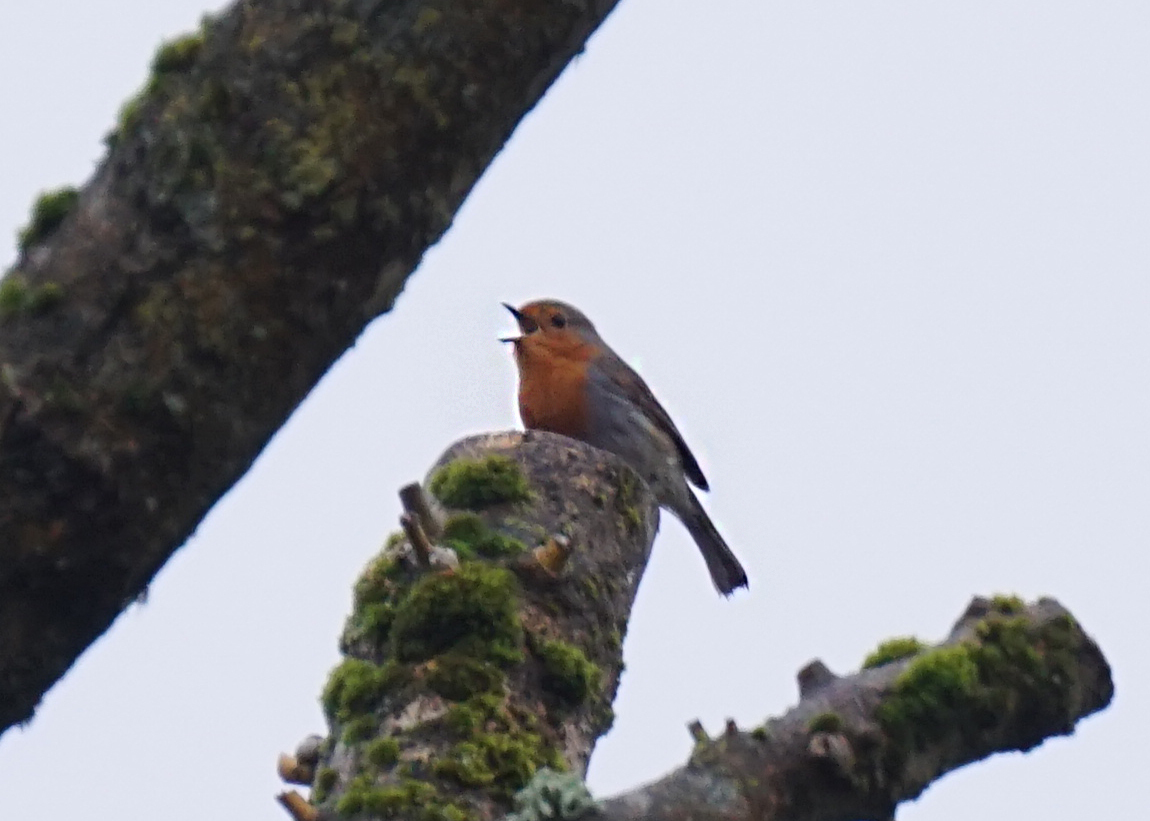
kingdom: Animalia
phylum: Chordata
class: Aves
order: Passeriformes
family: Muscicapidae
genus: Erithacus
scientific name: Erithacus rubecula
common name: European robin
